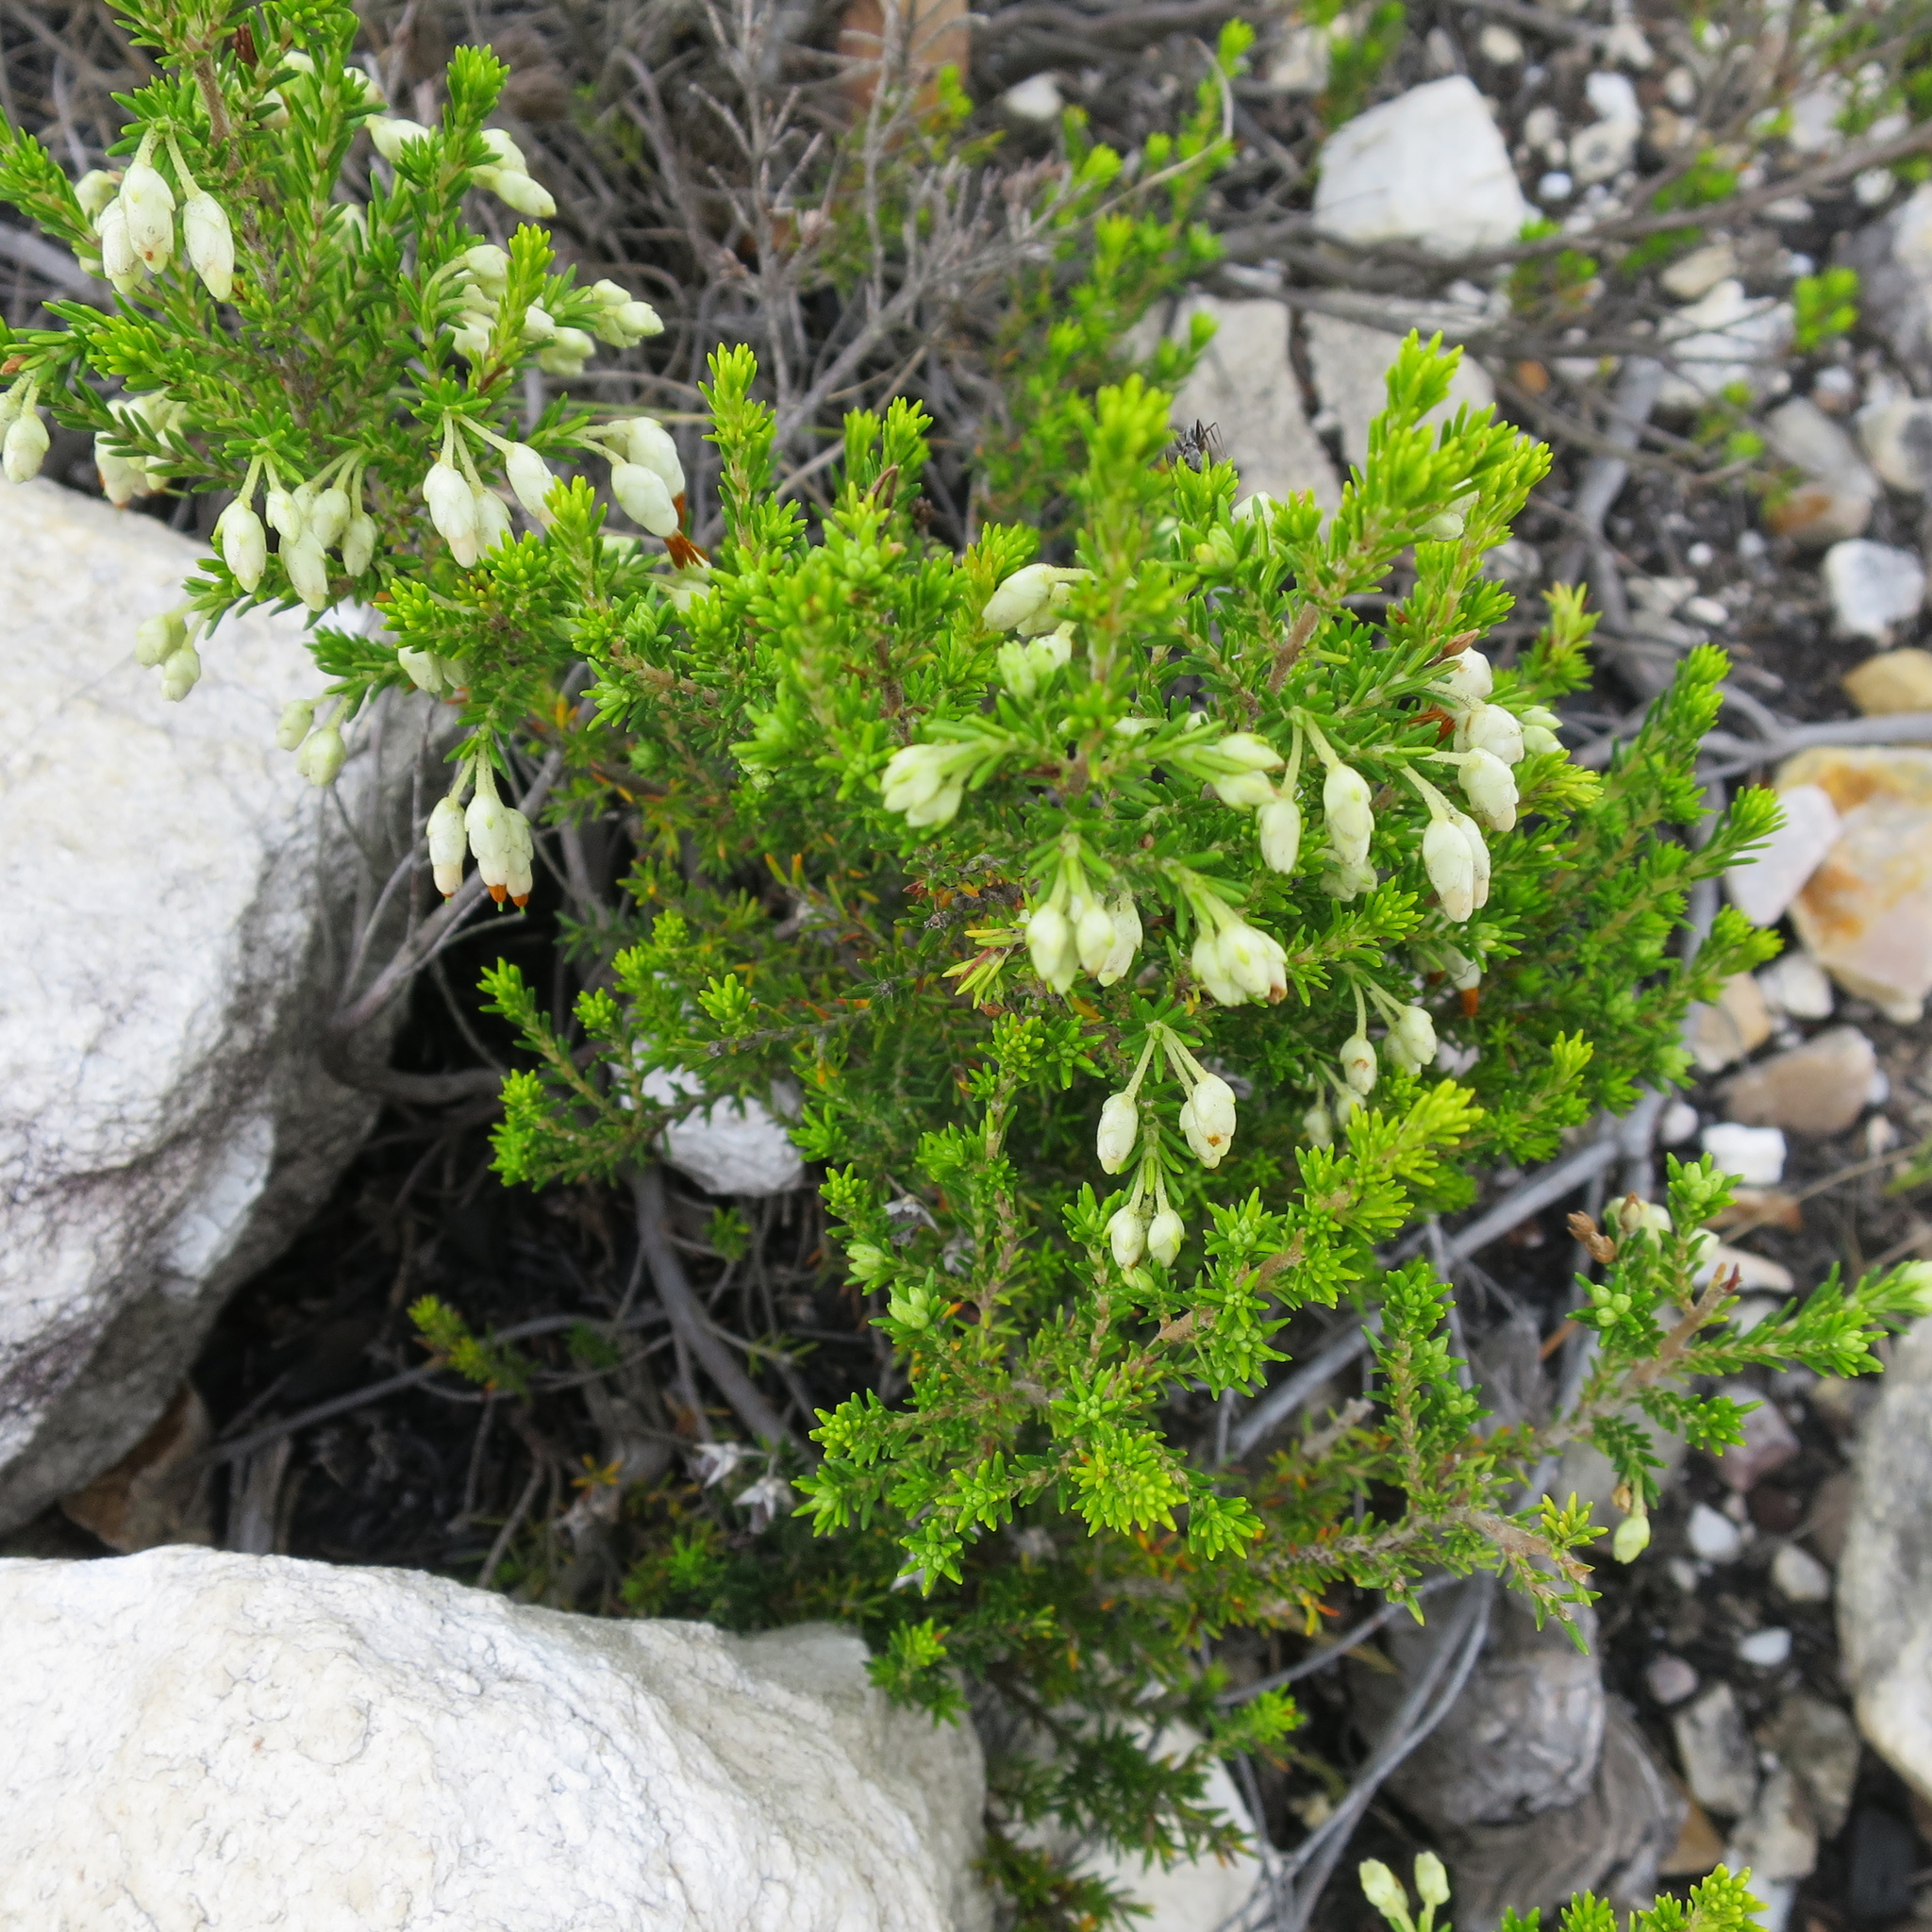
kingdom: Plantae
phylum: Tracheophyta
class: Magnoliopsida
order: Ericales
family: Ericaceae
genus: Erica
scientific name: Erica intermedia
